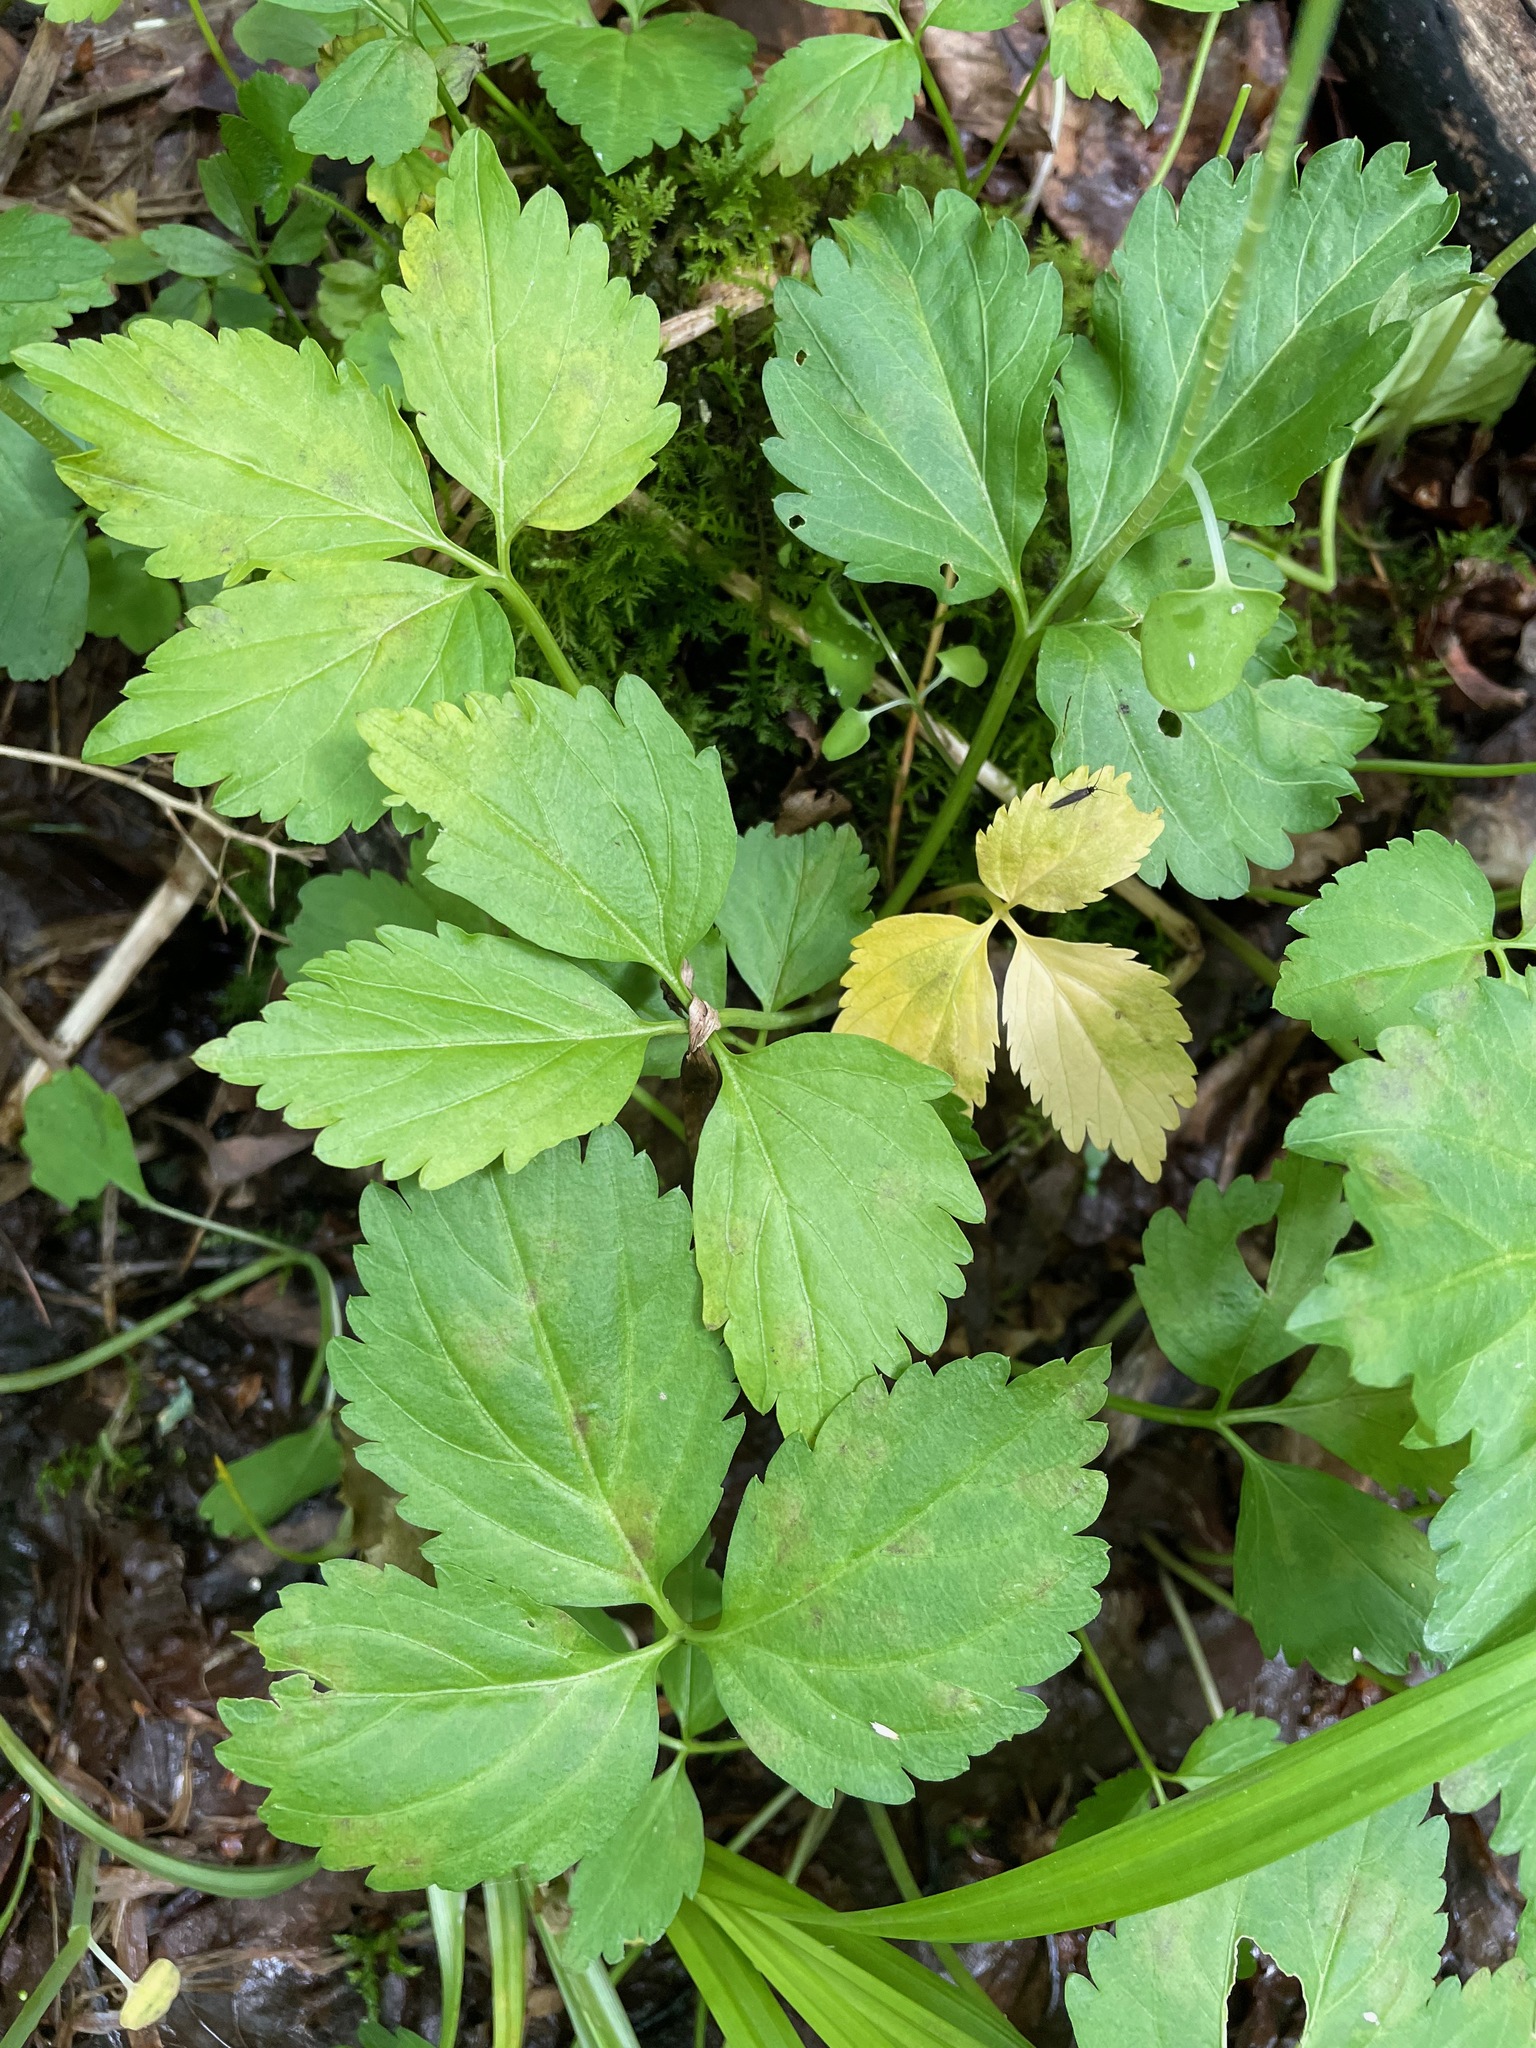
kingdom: Plantae
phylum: Tracheophyta
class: Magnoliopsida
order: Brassicales
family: Brassicaceae
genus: Cardamine
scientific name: Cardamine diphylla
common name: Broad-leaved toothwort
